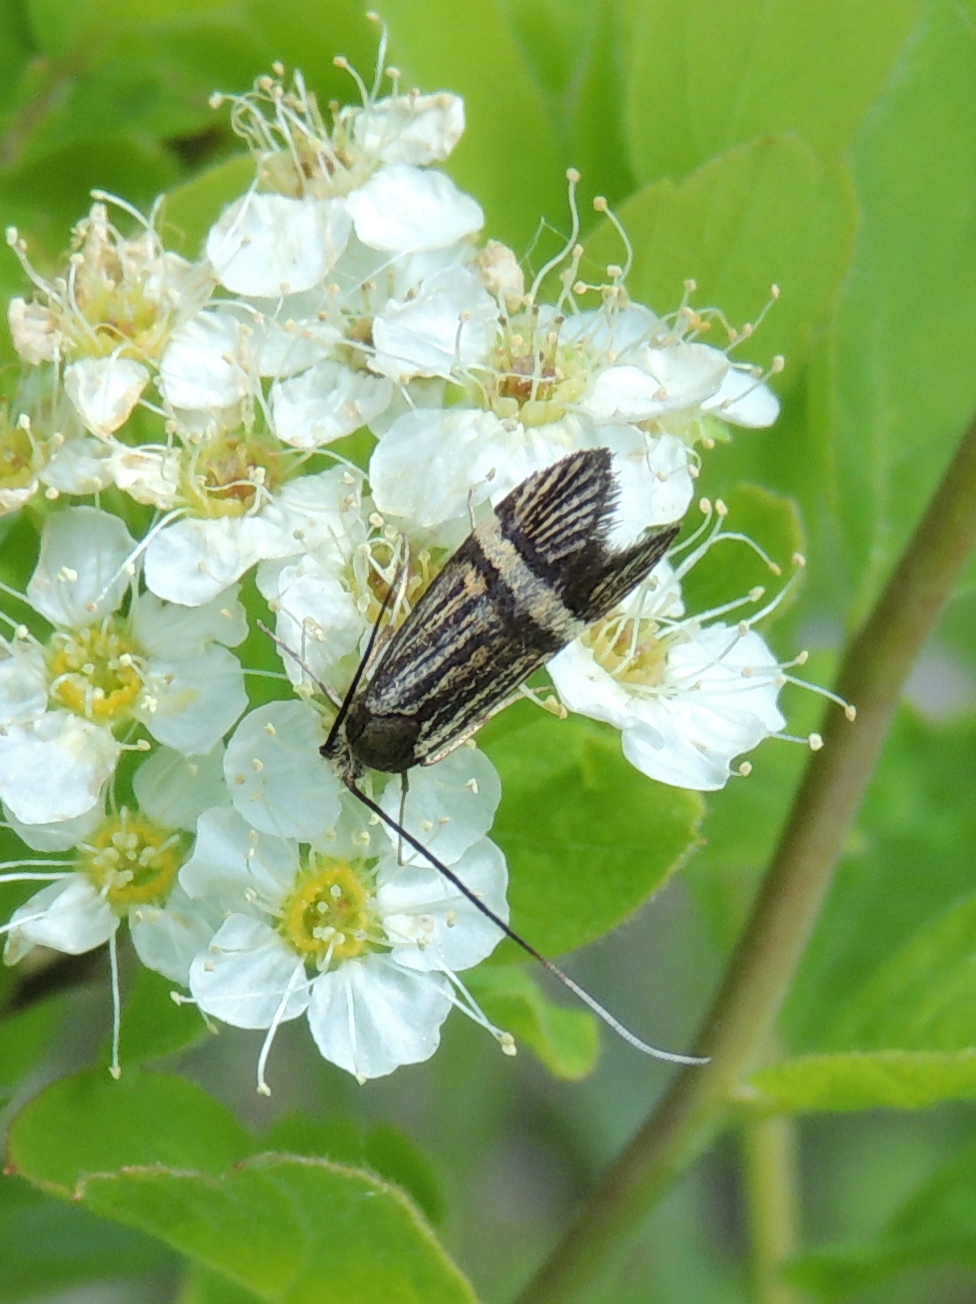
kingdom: Animalia
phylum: Arthropoda
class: Insecta
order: Lepidoptera
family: Adelidae
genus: Nemophora
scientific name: Nemophora congruella
